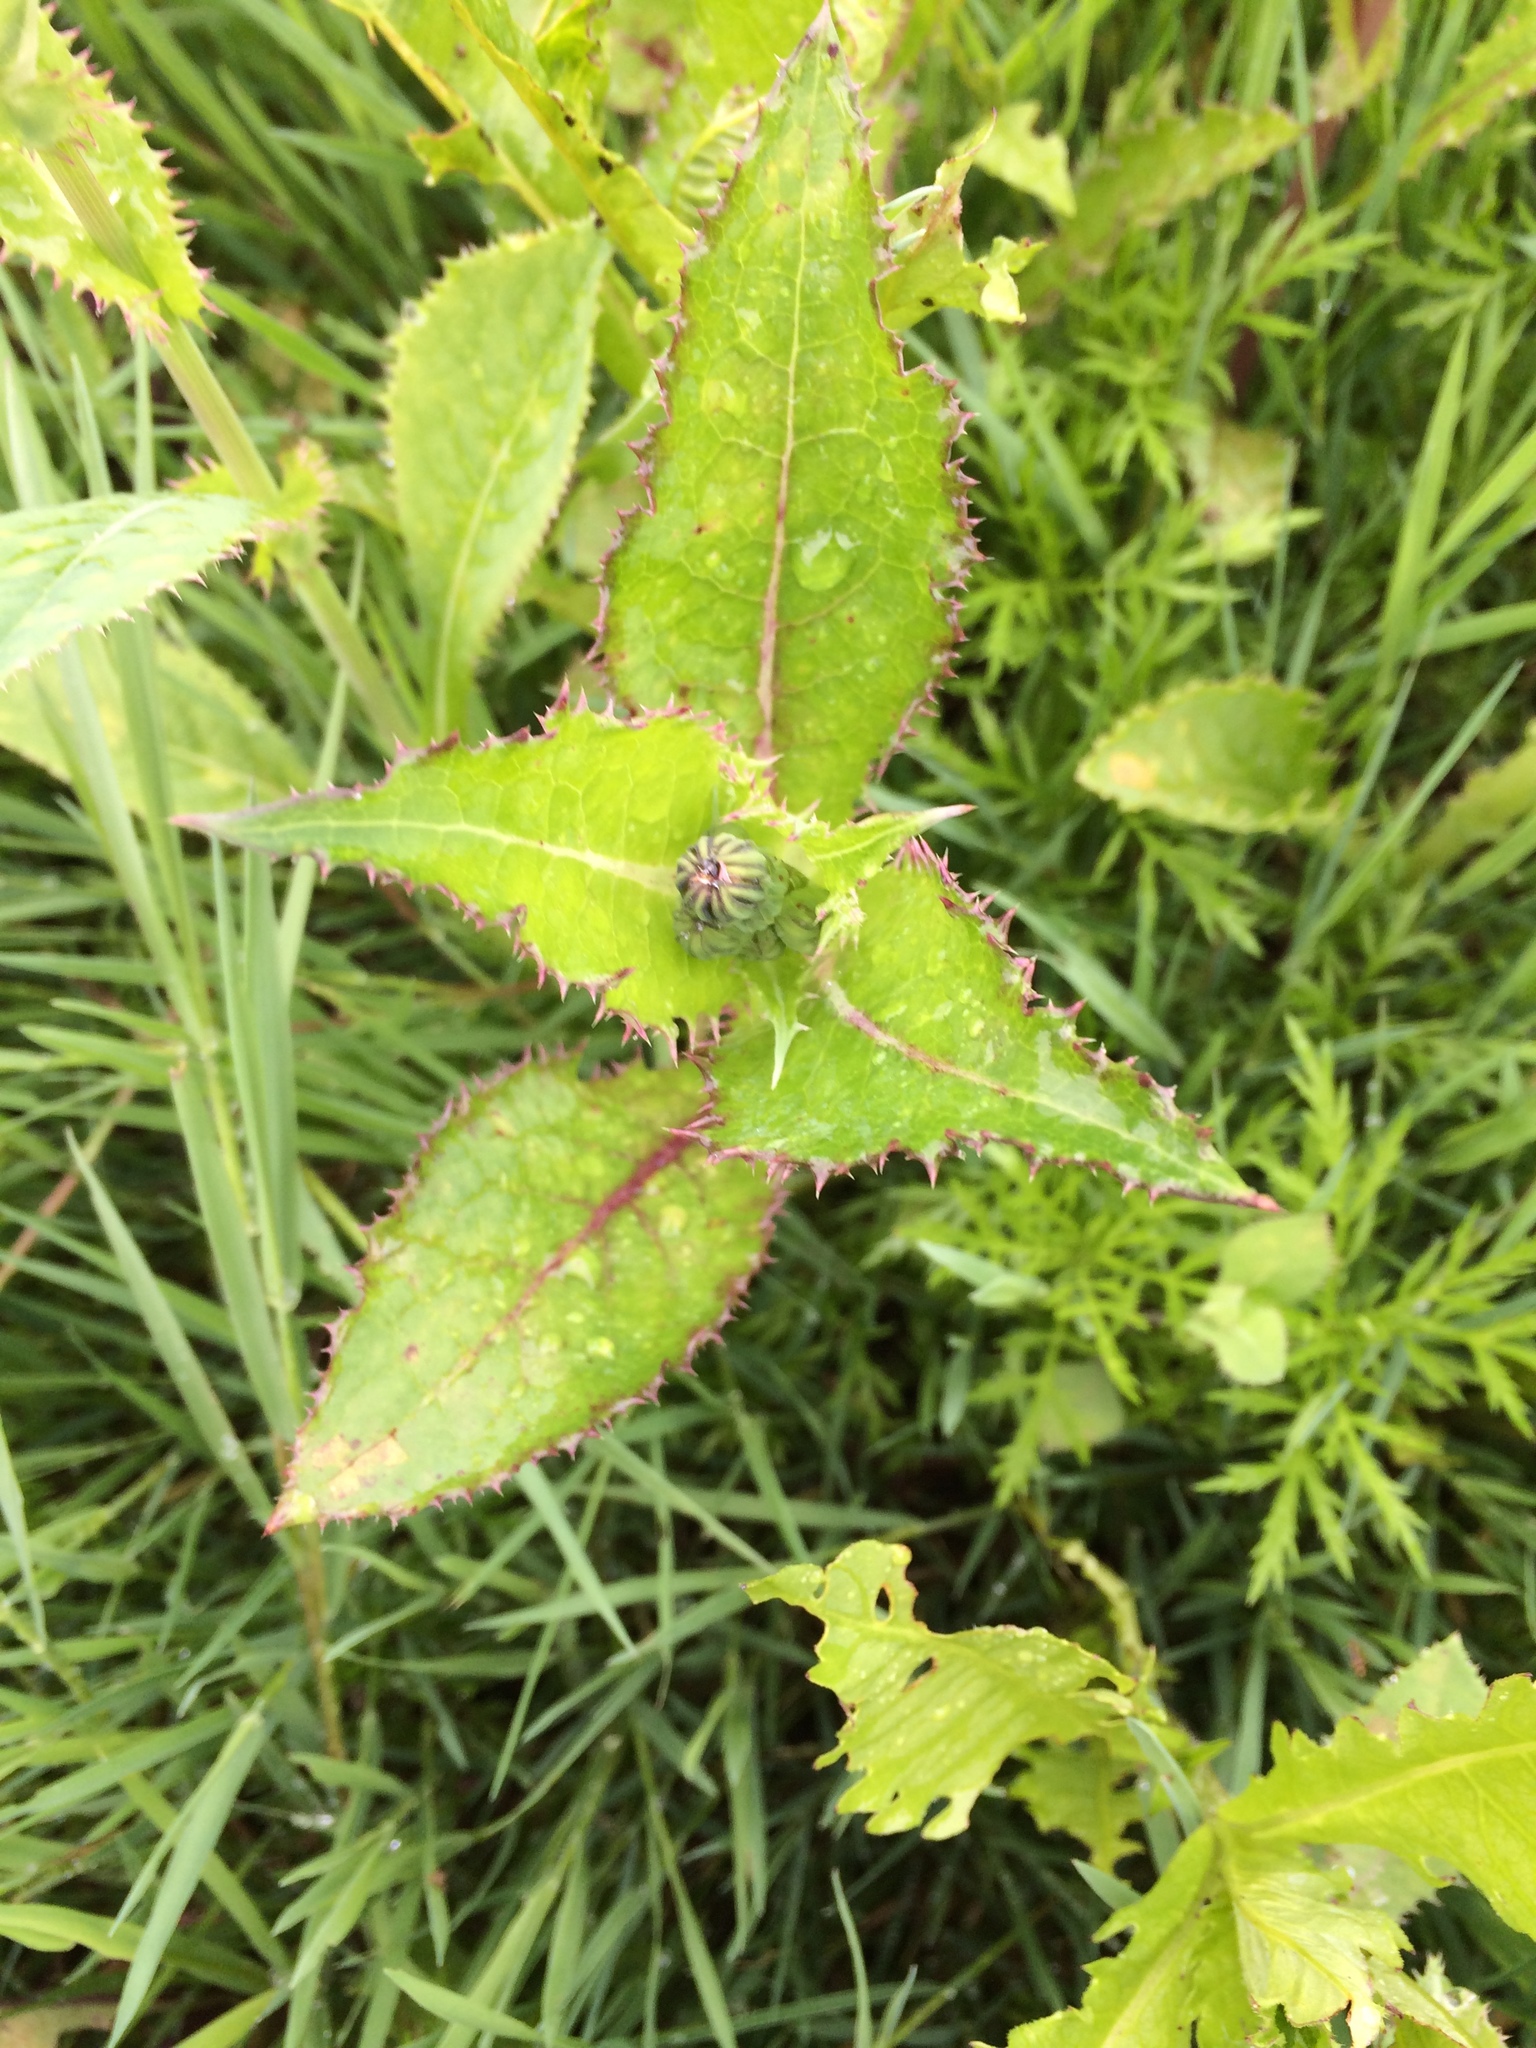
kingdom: Plantae
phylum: Tracheophyta
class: Magnoliopsida
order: Asterales
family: Asteraceae
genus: Sonchus
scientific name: Sonchus asper
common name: Prickly sow-thistle
